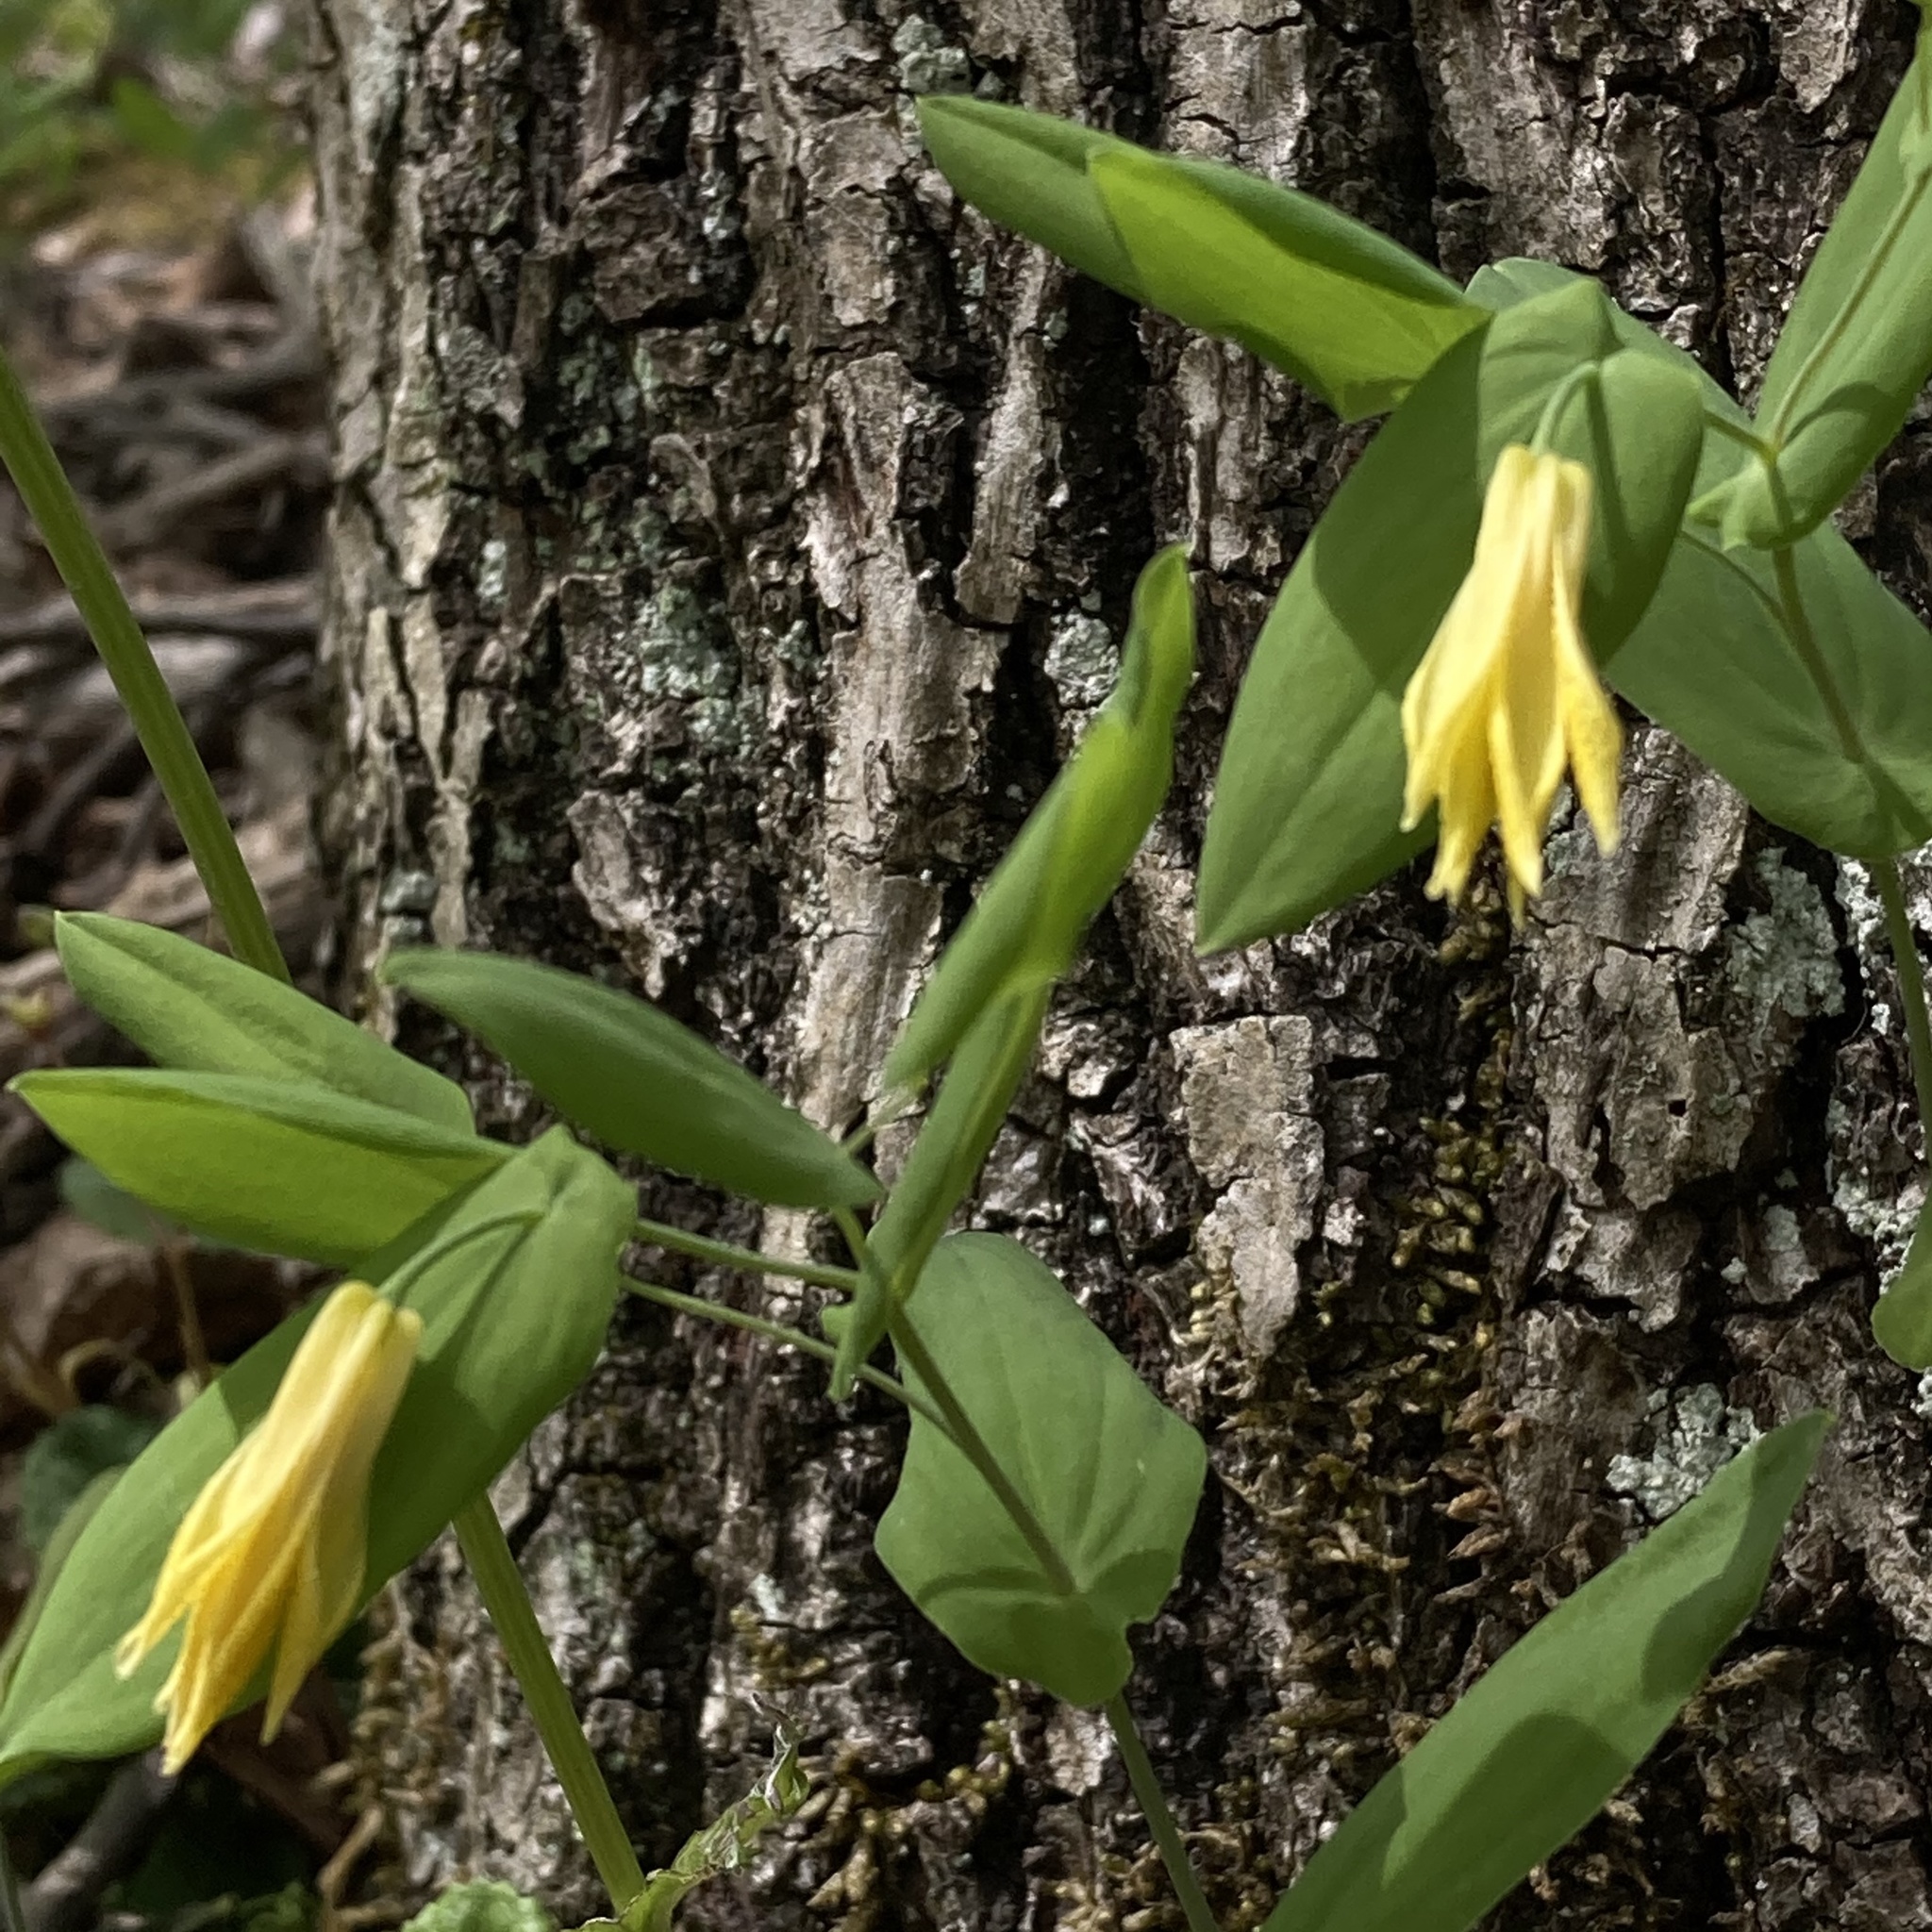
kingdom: Plantae
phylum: Tracheophyta
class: Liliopsida
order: Liliales
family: Colchicaceae
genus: Uvularia
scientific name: Uvularia grandiflora
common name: Bellwort
